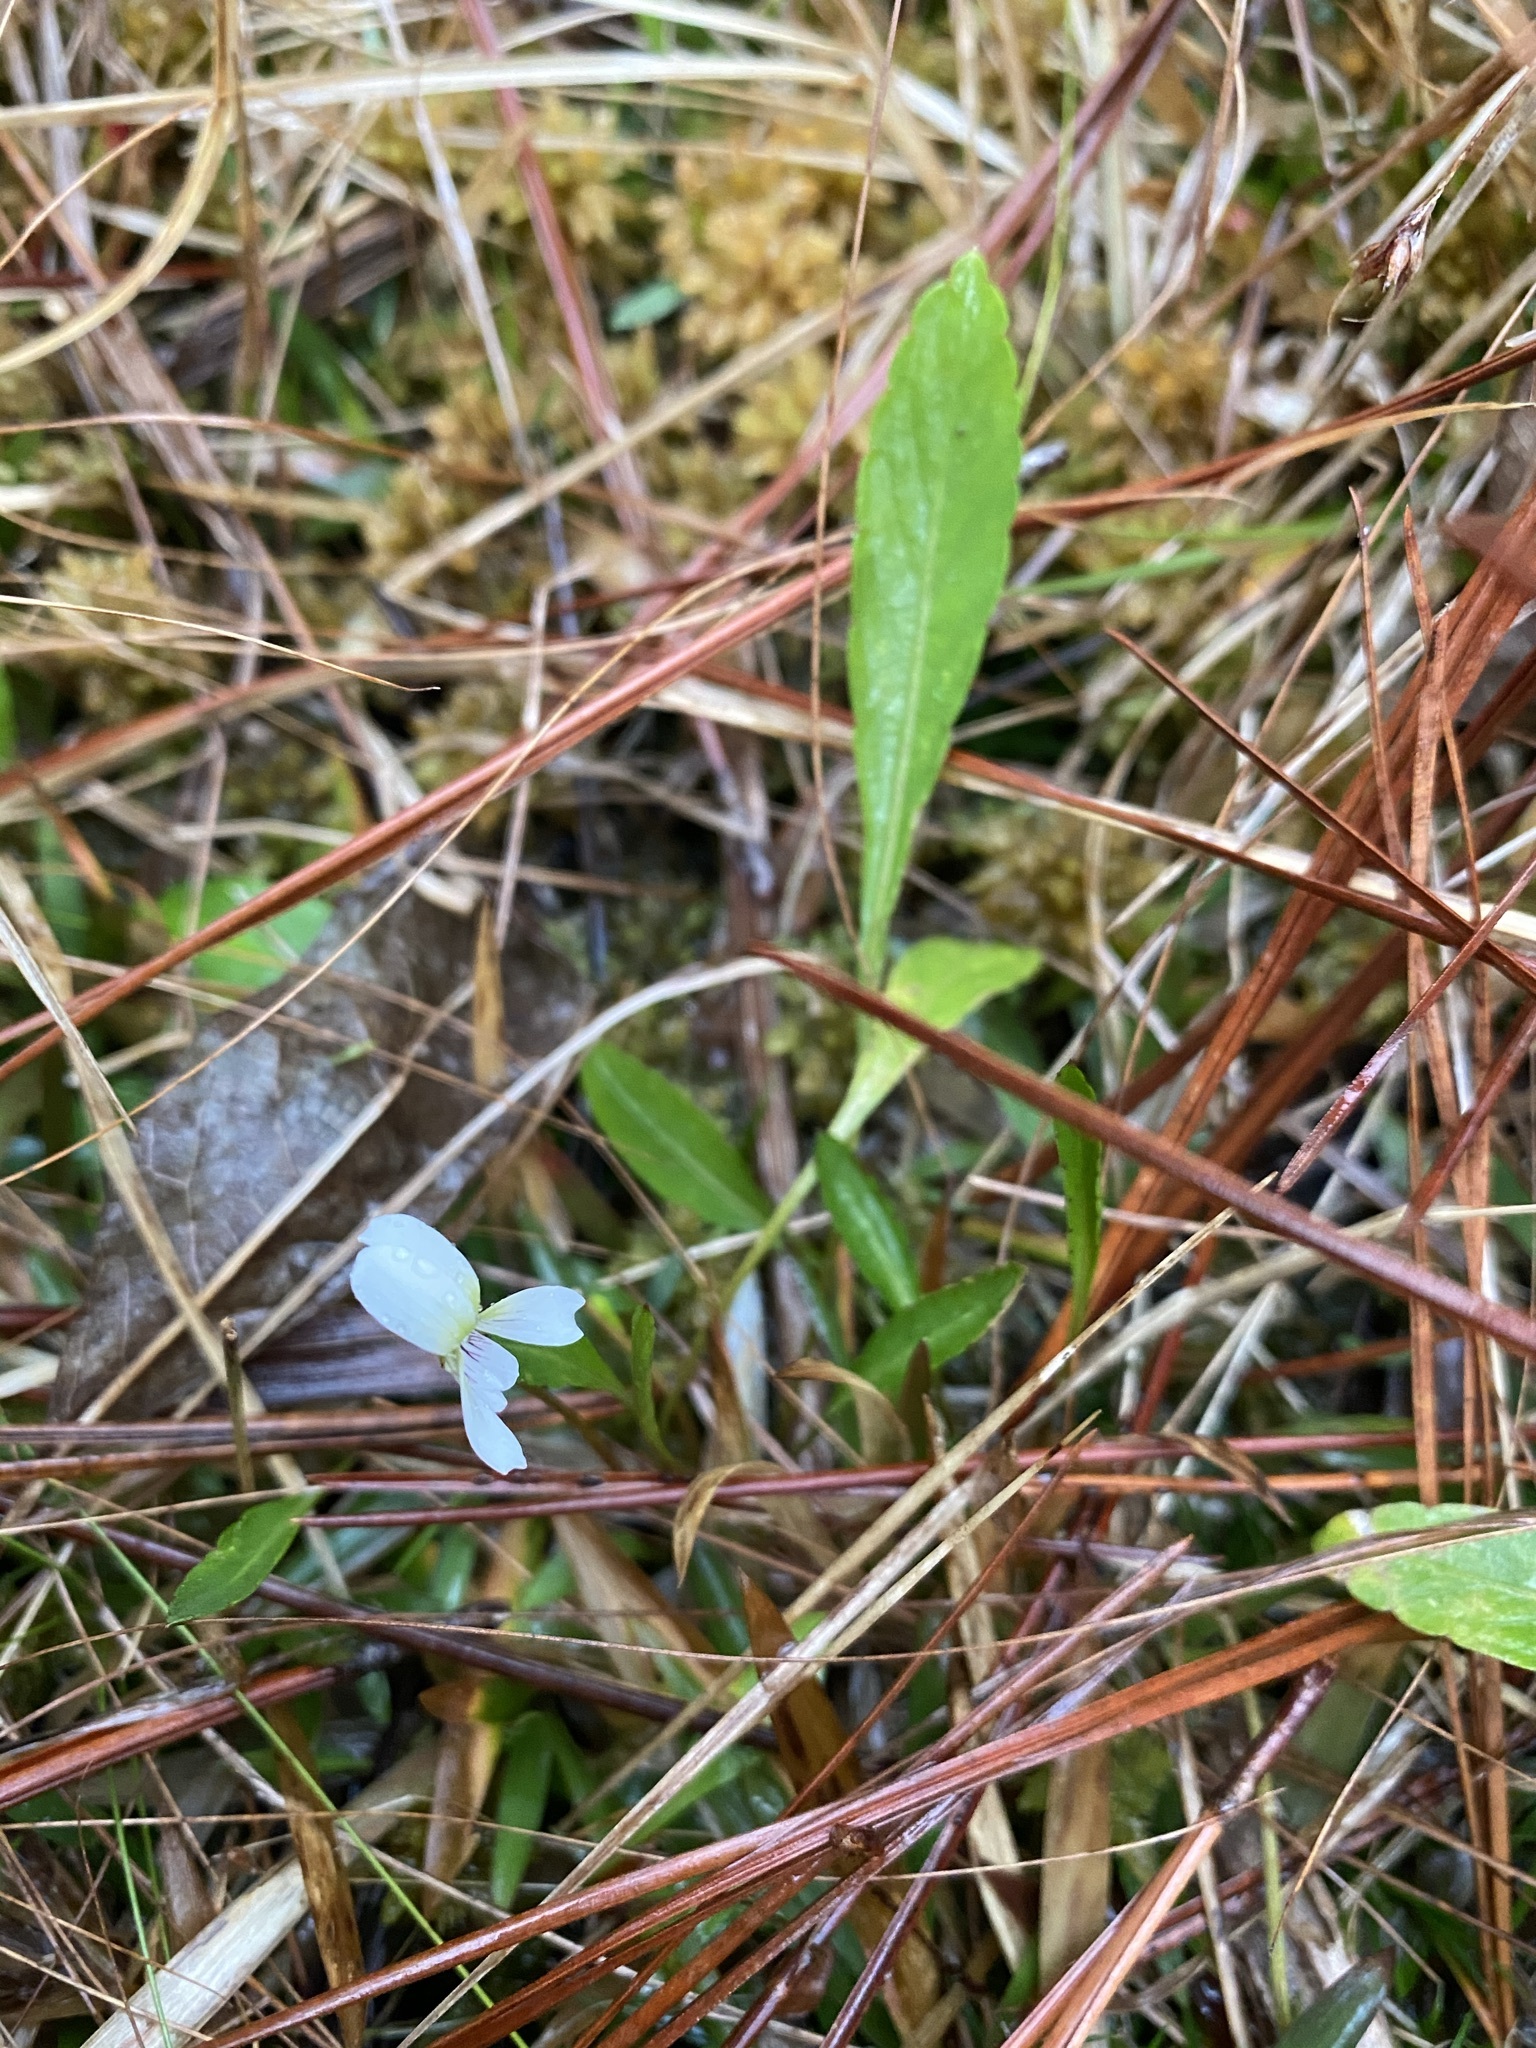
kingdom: Plantae
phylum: Tracheophyta
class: Magnoliopsida
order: Malpighiales
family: Violaceae
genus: Viola
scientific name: Viola lanceolata
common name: Bog white violet
